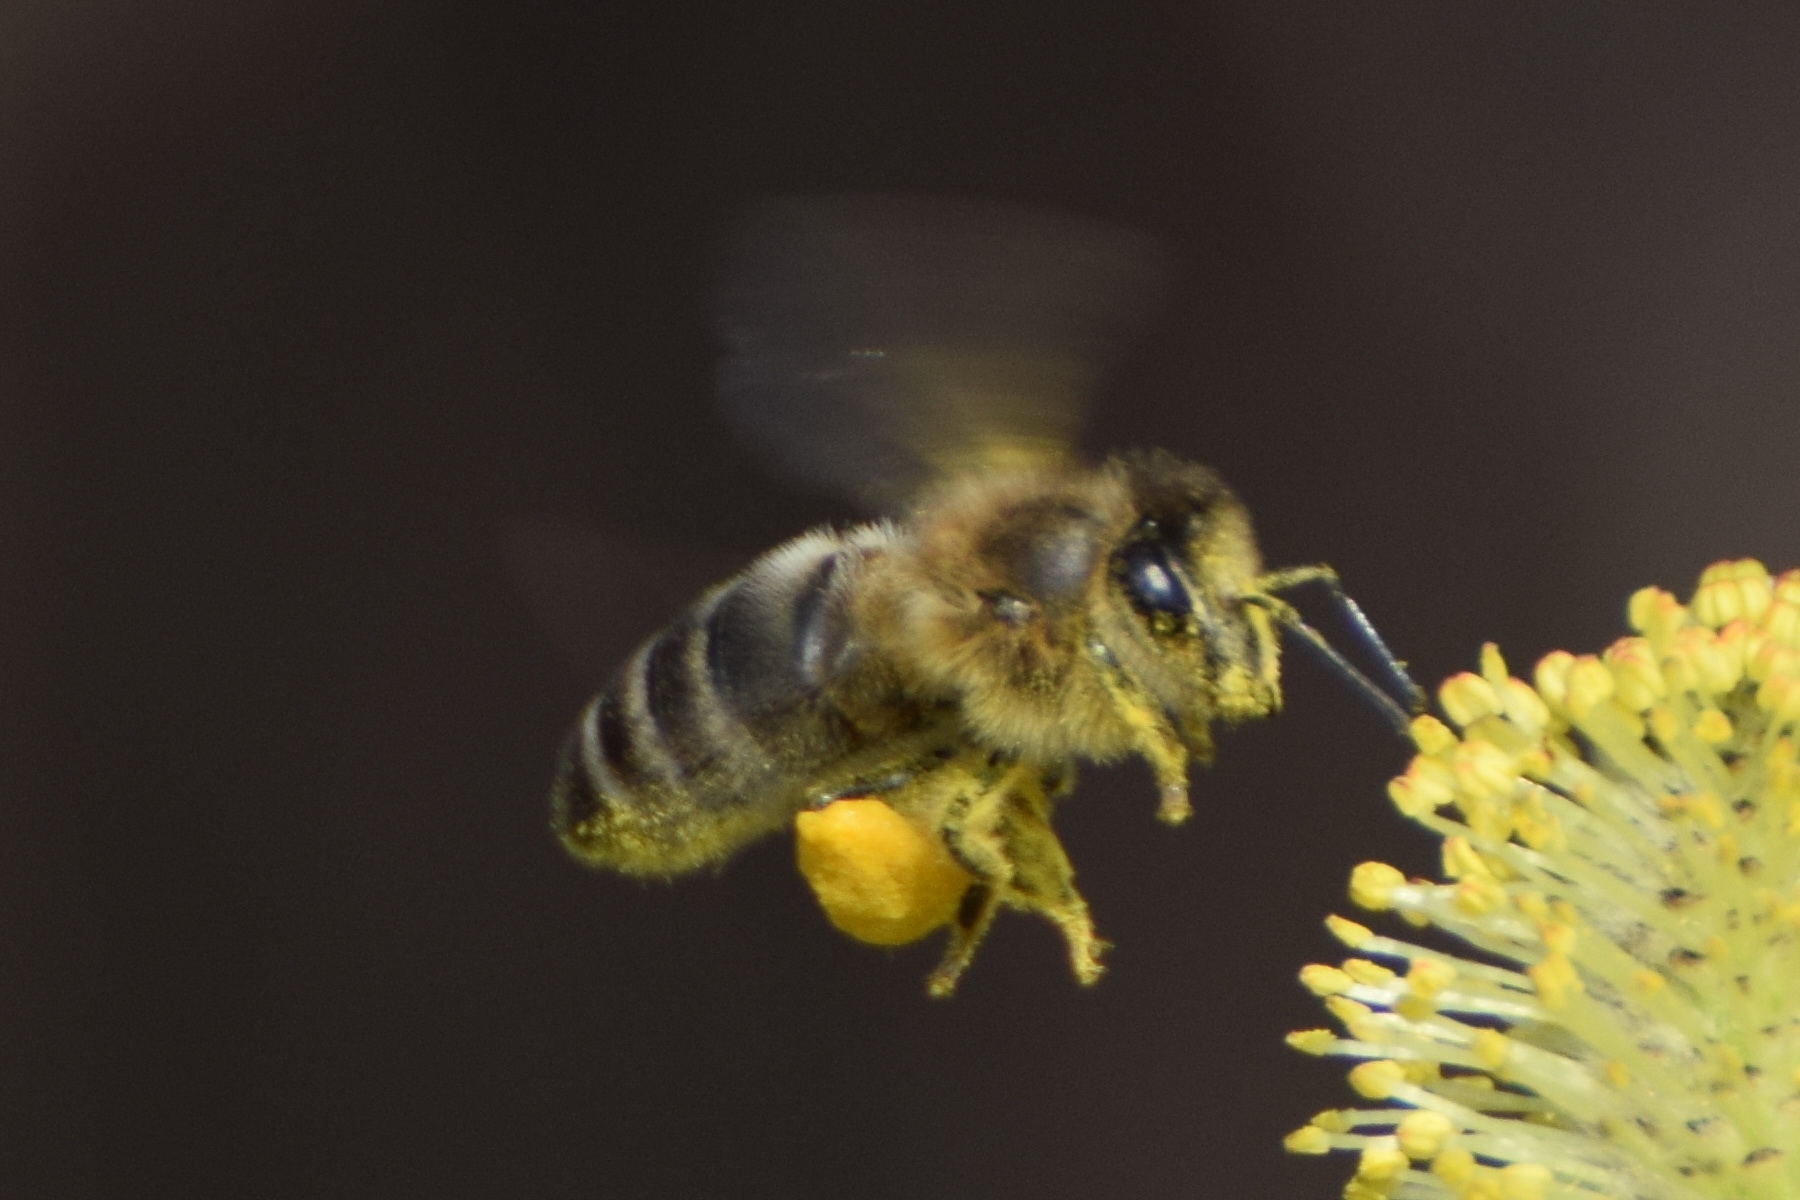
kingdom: Animalia
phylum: Arthropoda
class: Insecta
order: Hymenoptera
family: Apidae
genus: Apis
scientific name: Apis mellifera
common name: Honey bee
